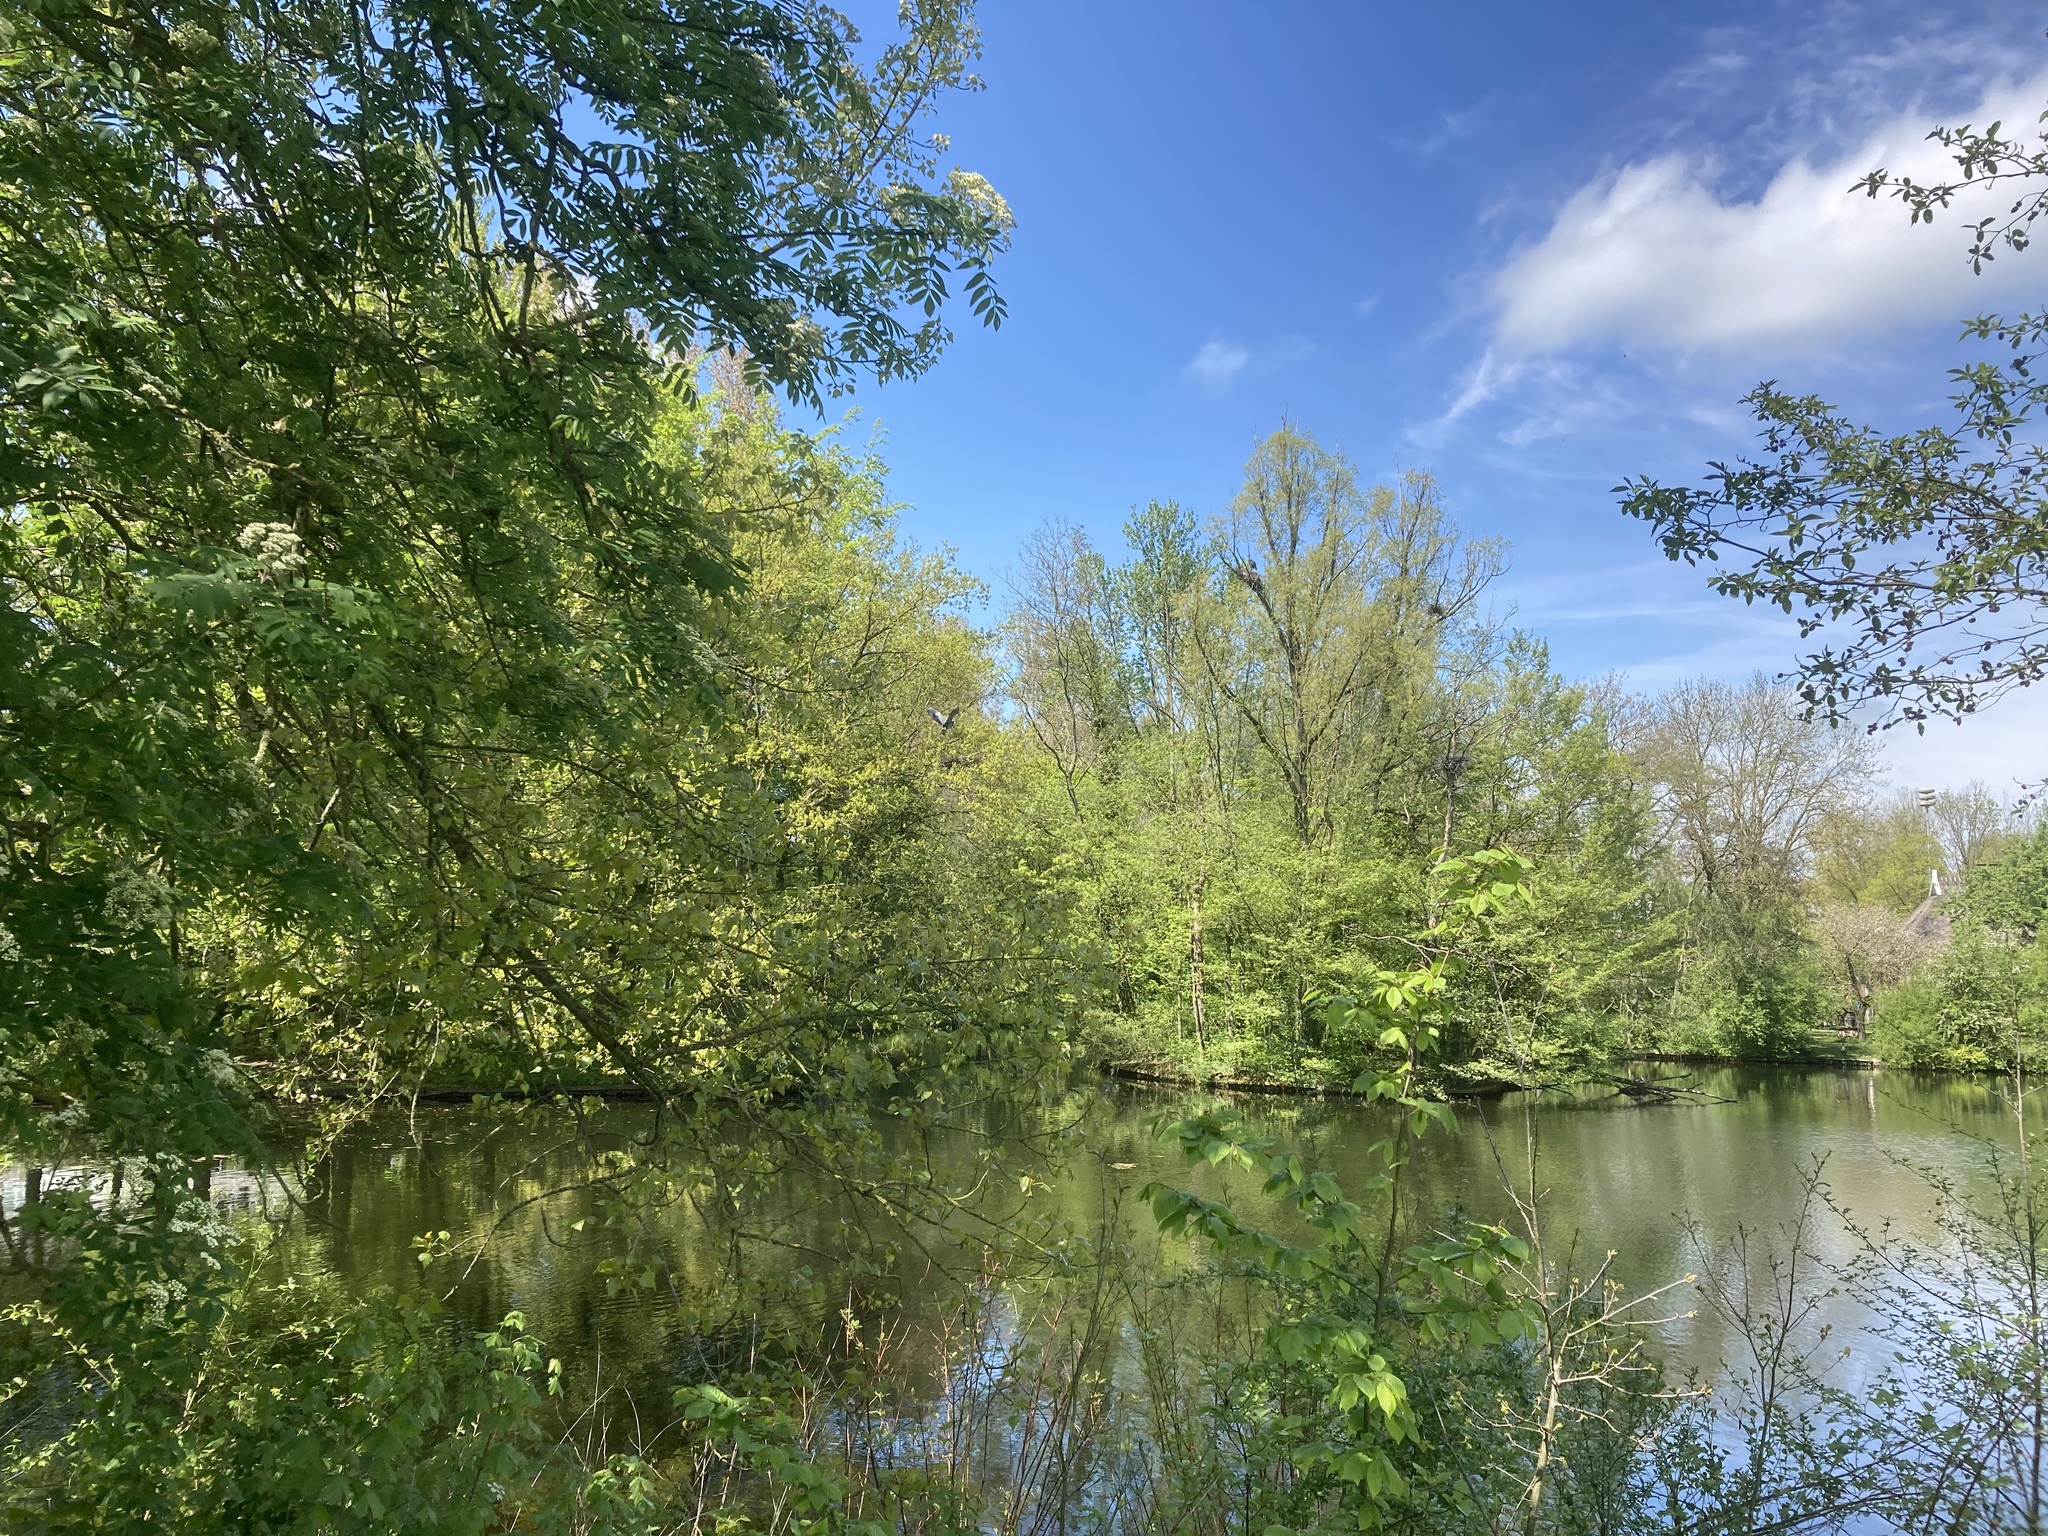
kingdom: Animalia
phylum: Chordata
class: Aves
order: Pelecaniformes
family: Ardeidae
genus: Ardea
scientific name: Ardea cinerea
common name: Grey heron
